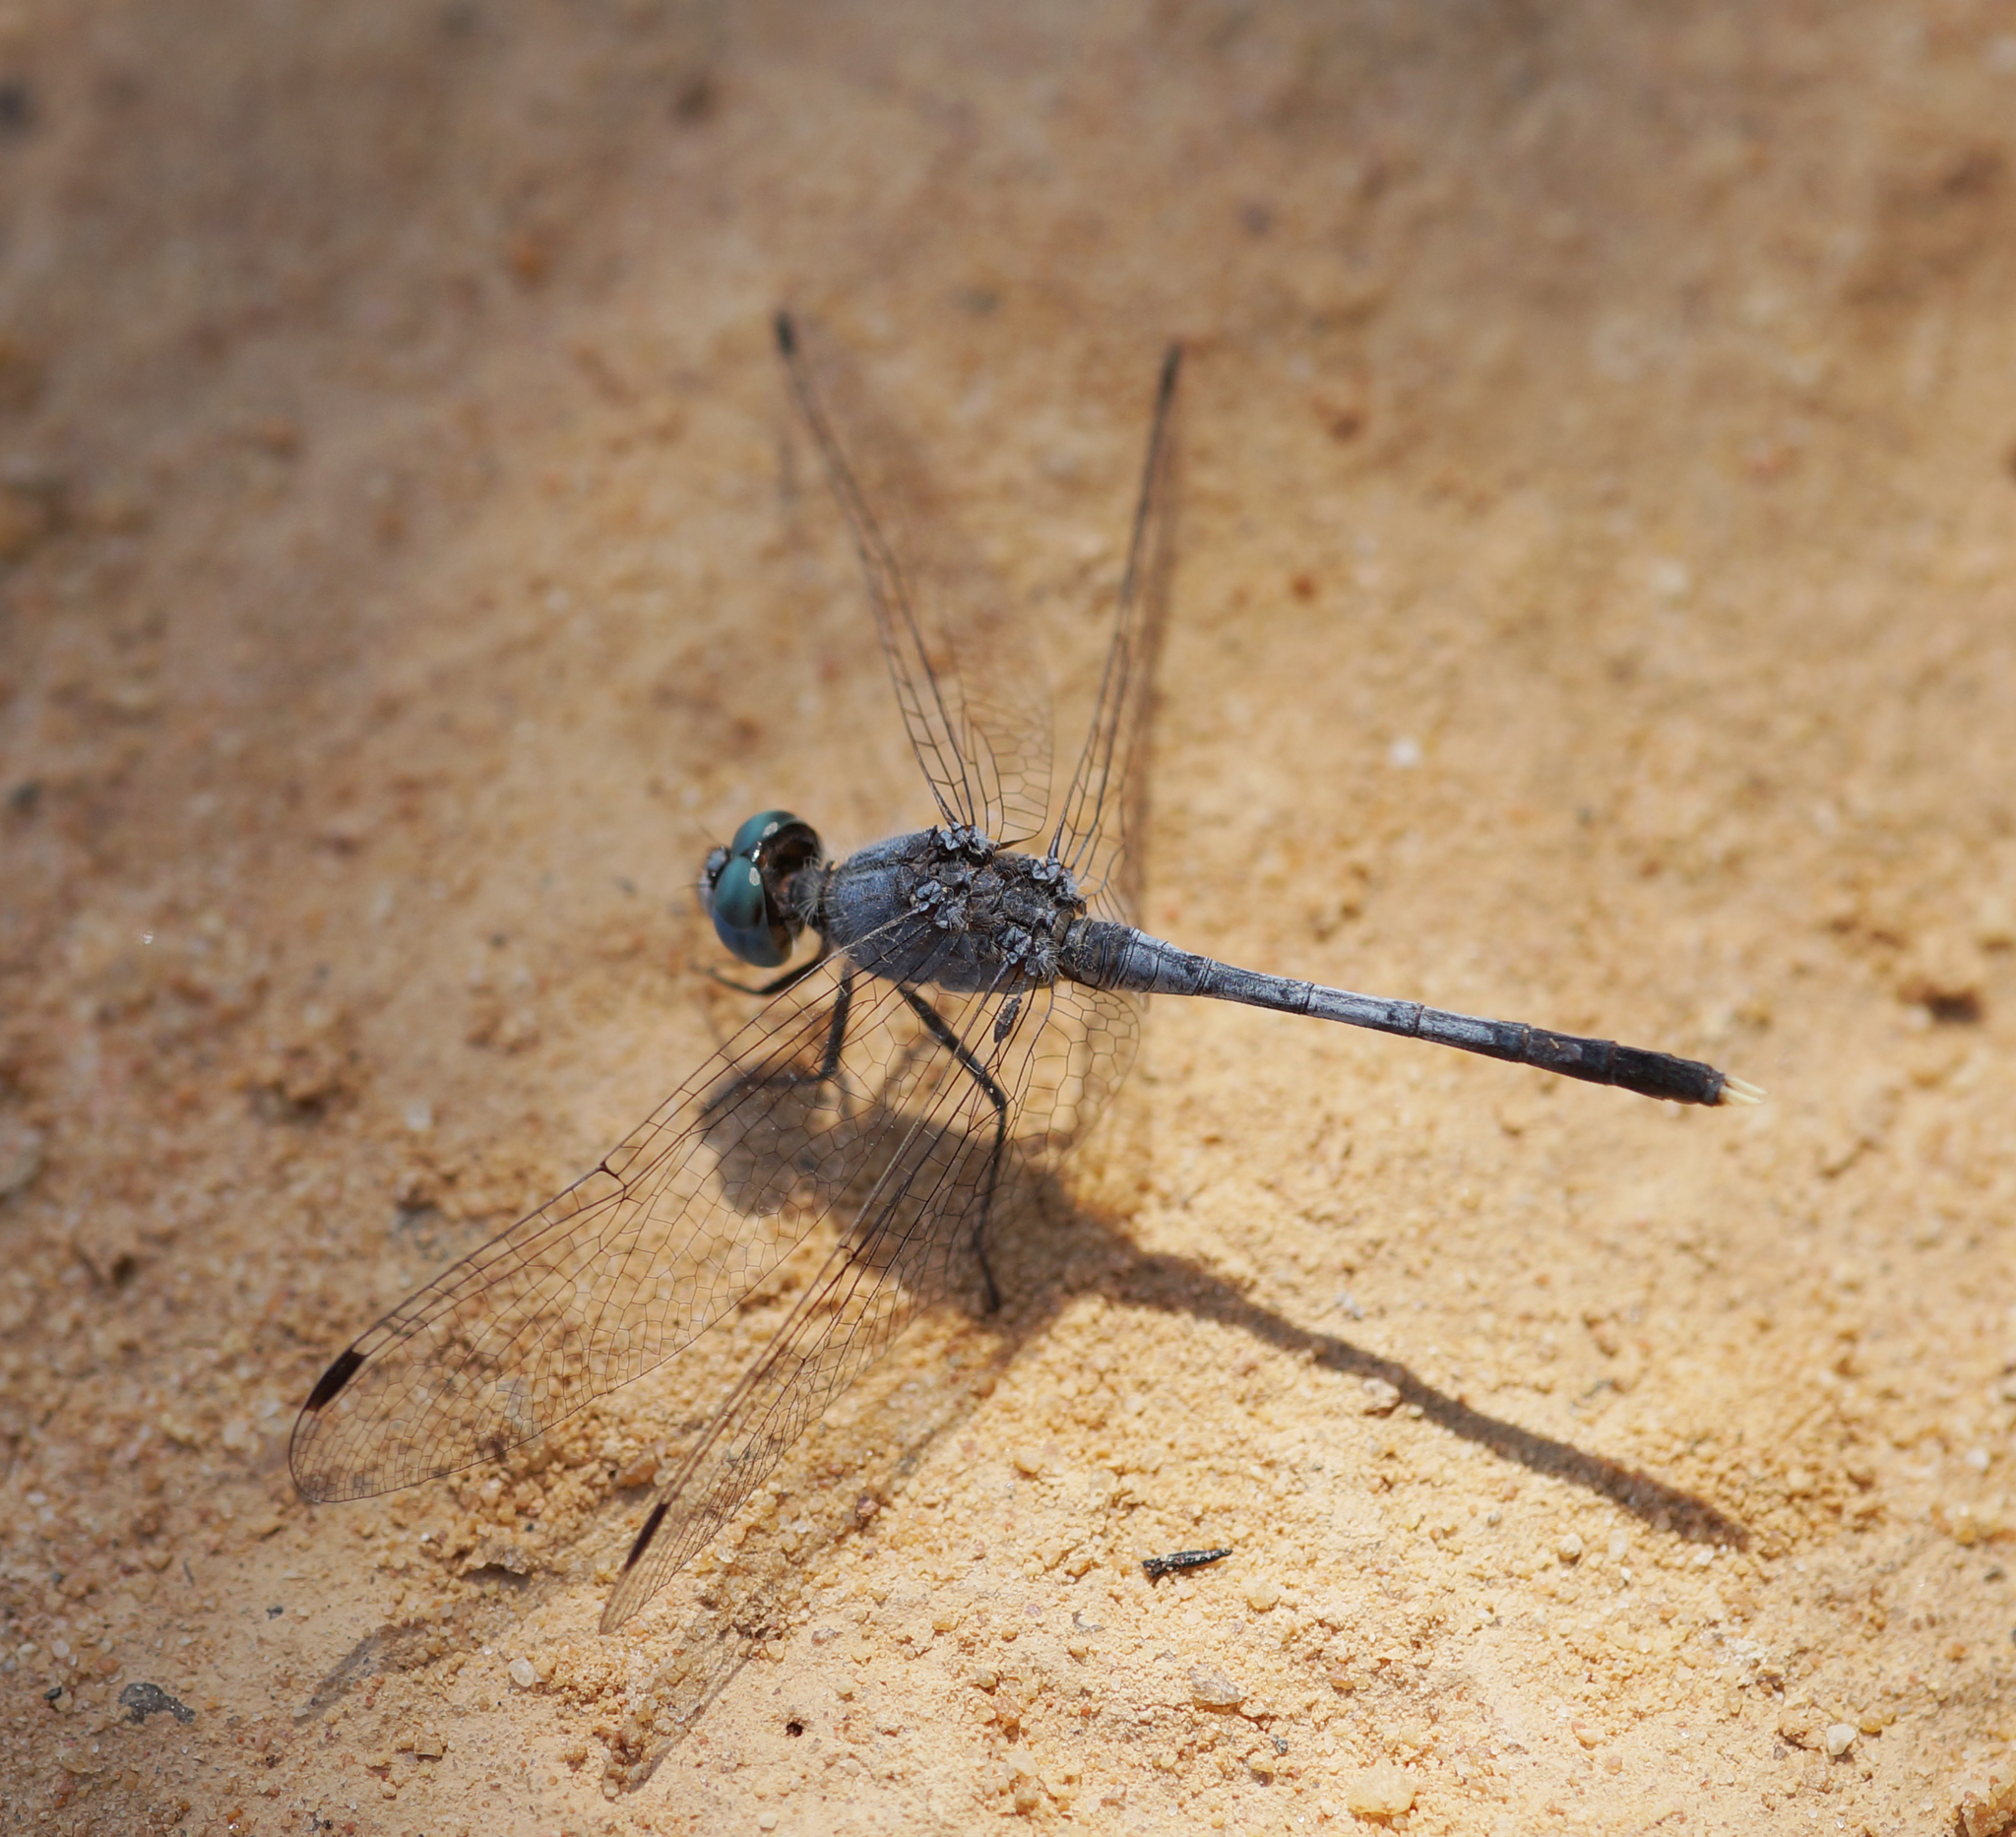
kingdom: Animalia
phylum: Arthropoda
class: Insecta
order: Odonata
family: Libellulidae
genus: Diplacodes
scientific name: Diplacodes trivialis
